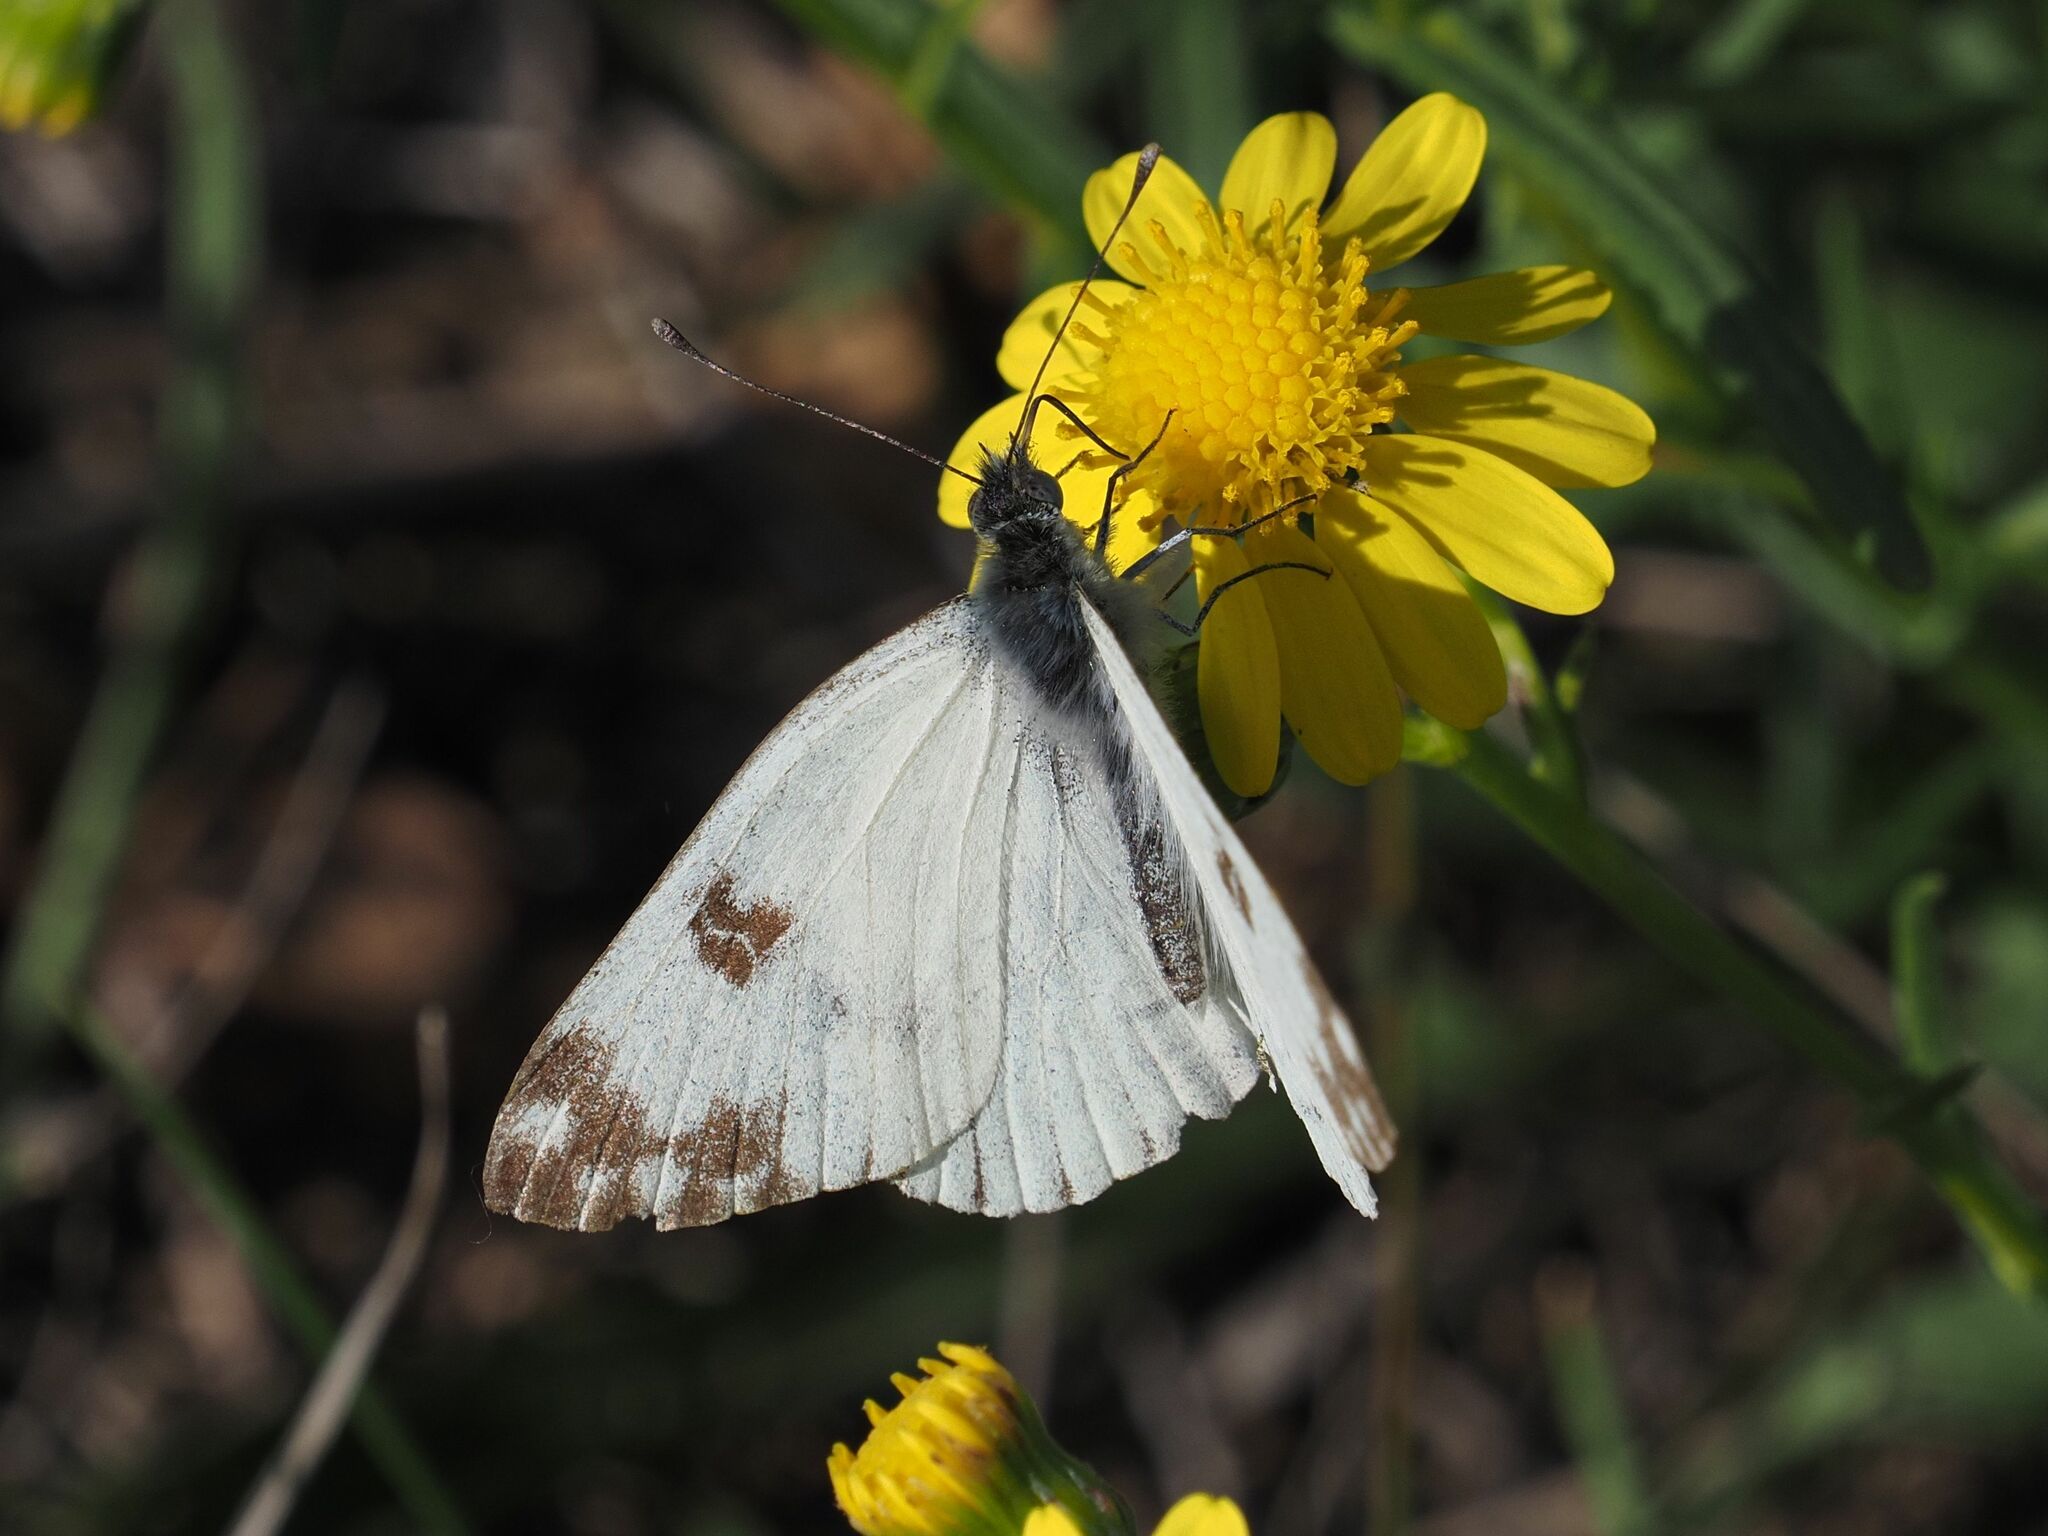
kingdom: Animalia
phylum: Arthropoda
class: Insecta
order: Lepidoptera
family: Pieridae
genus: Pontia
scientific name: Pontia edusa
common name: Eastern bath white
